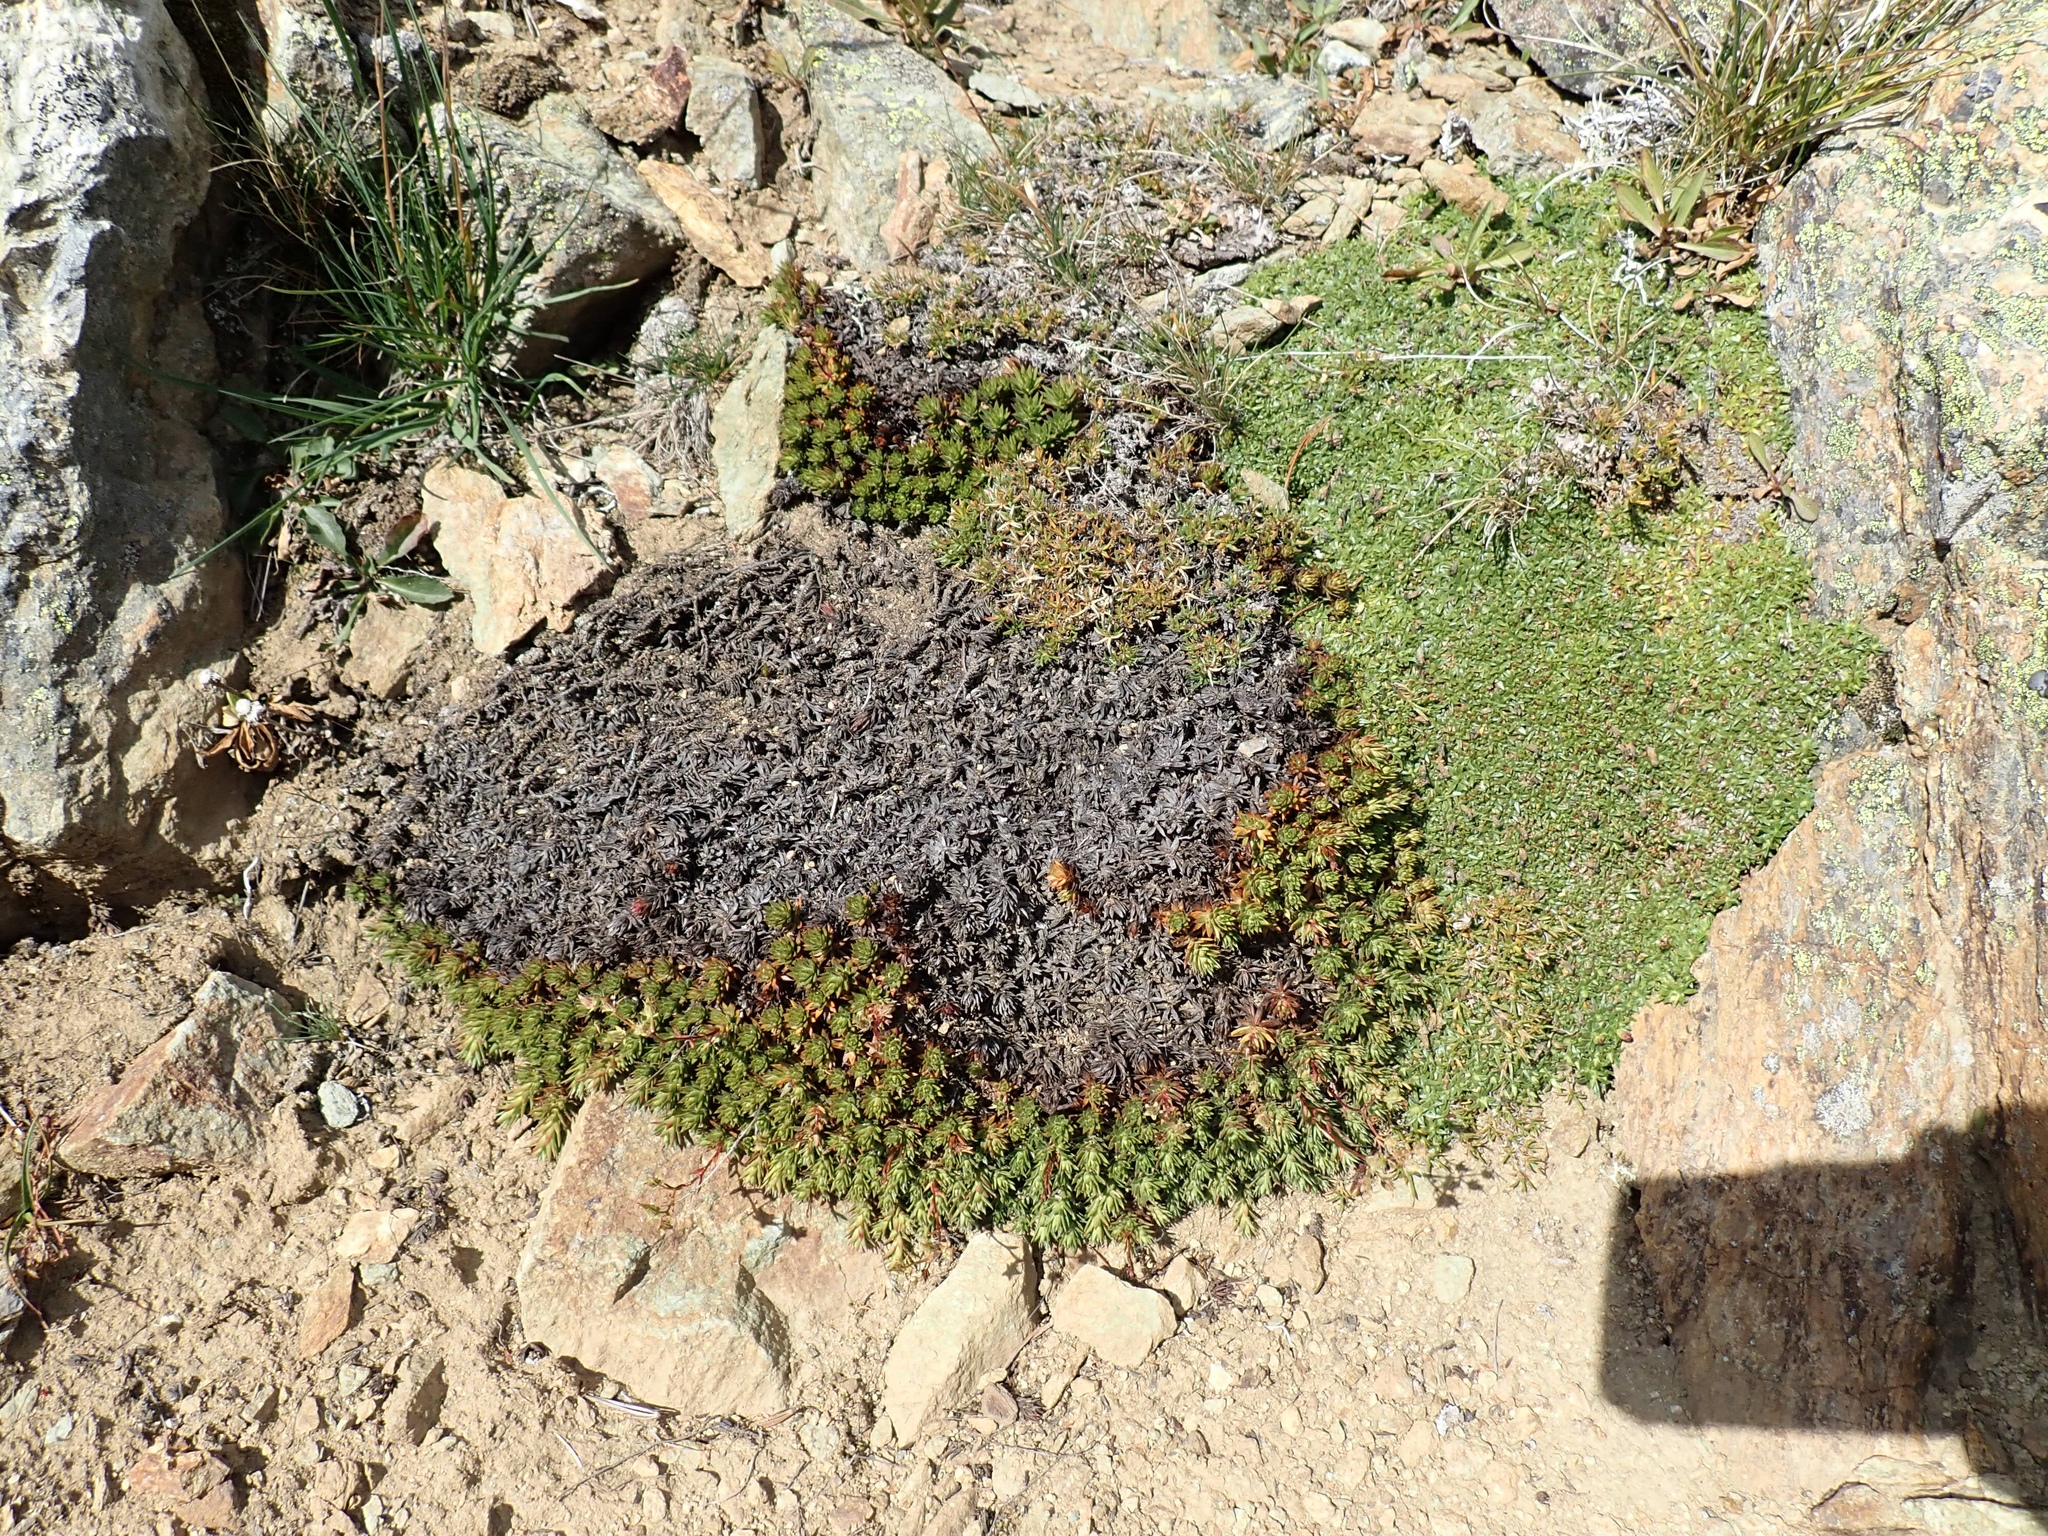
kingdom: Plantae
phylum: Tracheophyta
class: Magnoliopsida
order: Saxifragales
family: Saxifragaceae
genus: Saxifraga
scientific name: Saxifraga bronchialis
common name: Matted saxifrage
